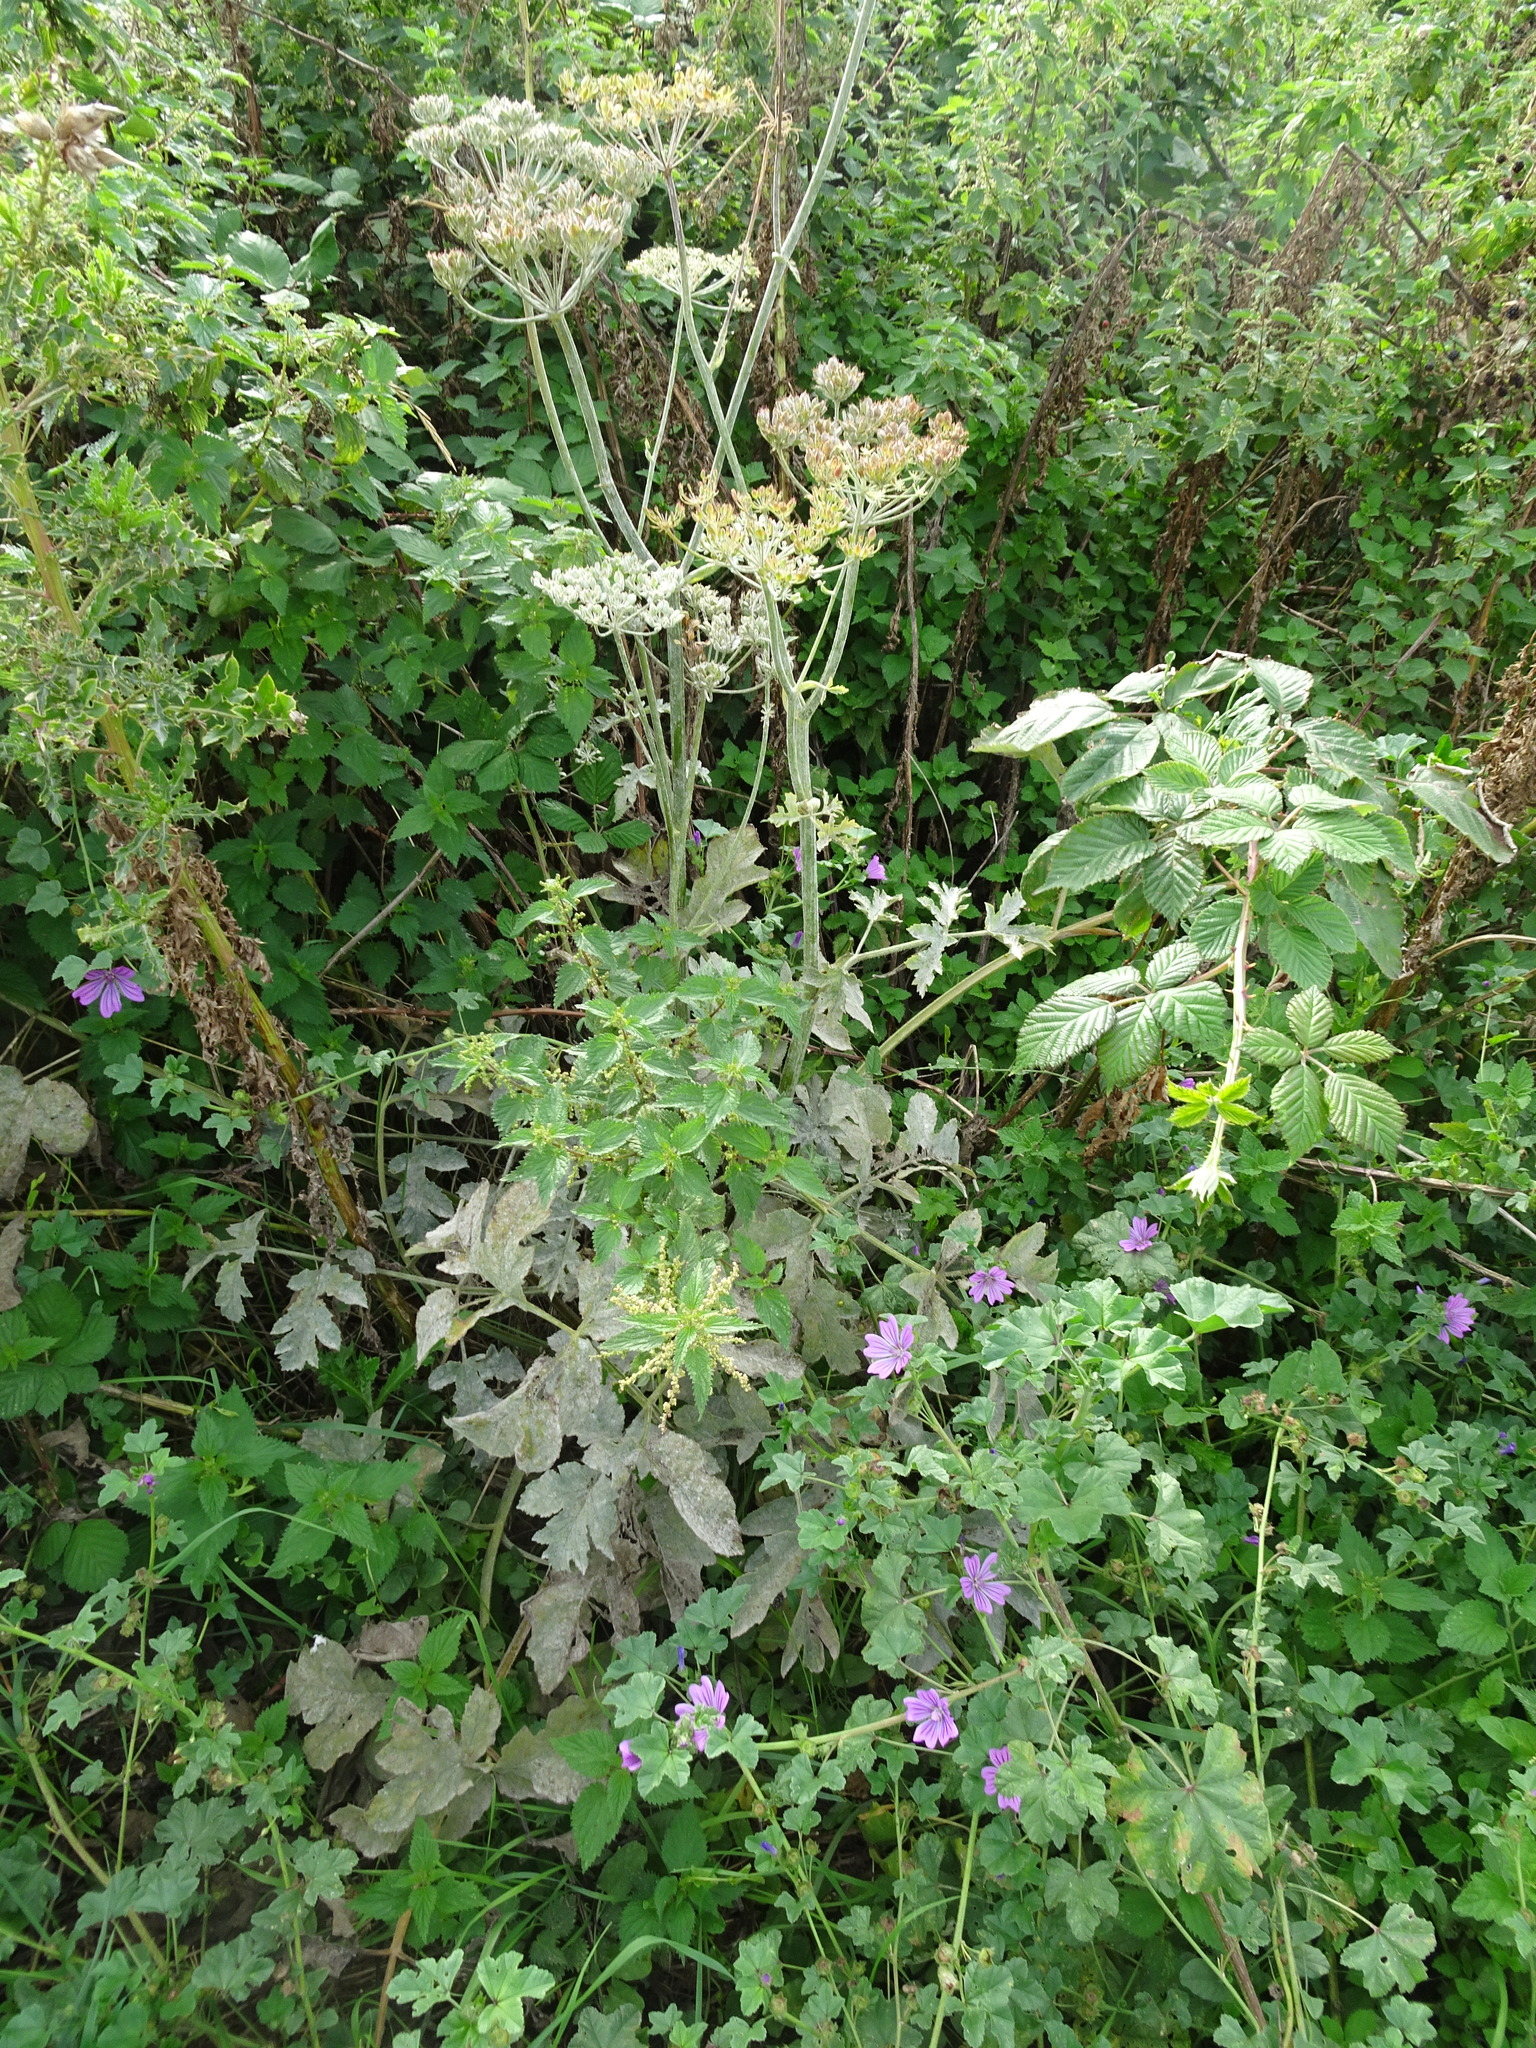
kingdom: Plantae
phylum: Tracheophyta
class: Magnoliopsida
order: Apiales
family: Apiaceae
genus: Heracleum
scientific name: Heracleum sphondylium
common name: Hogweed
